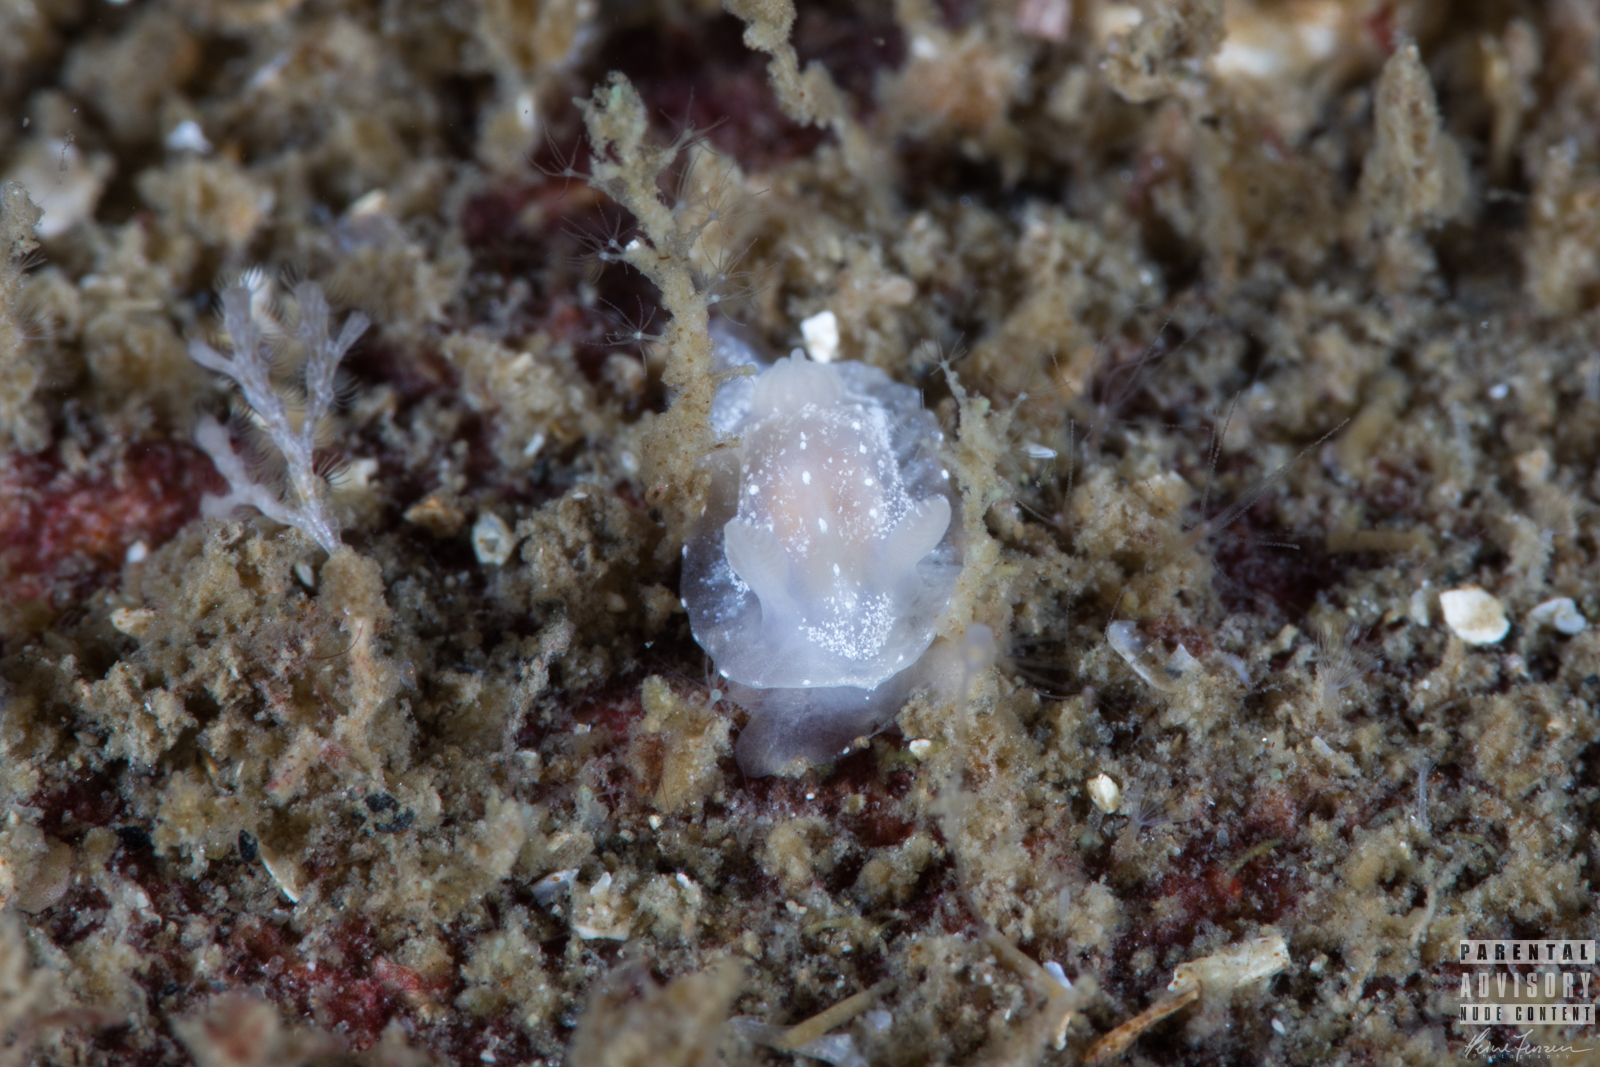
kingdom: Animalia
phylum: Mollusca
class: Gastropoda
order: Nudibranchia
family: Goniodorididae
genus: Okenia
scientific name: Okenia
